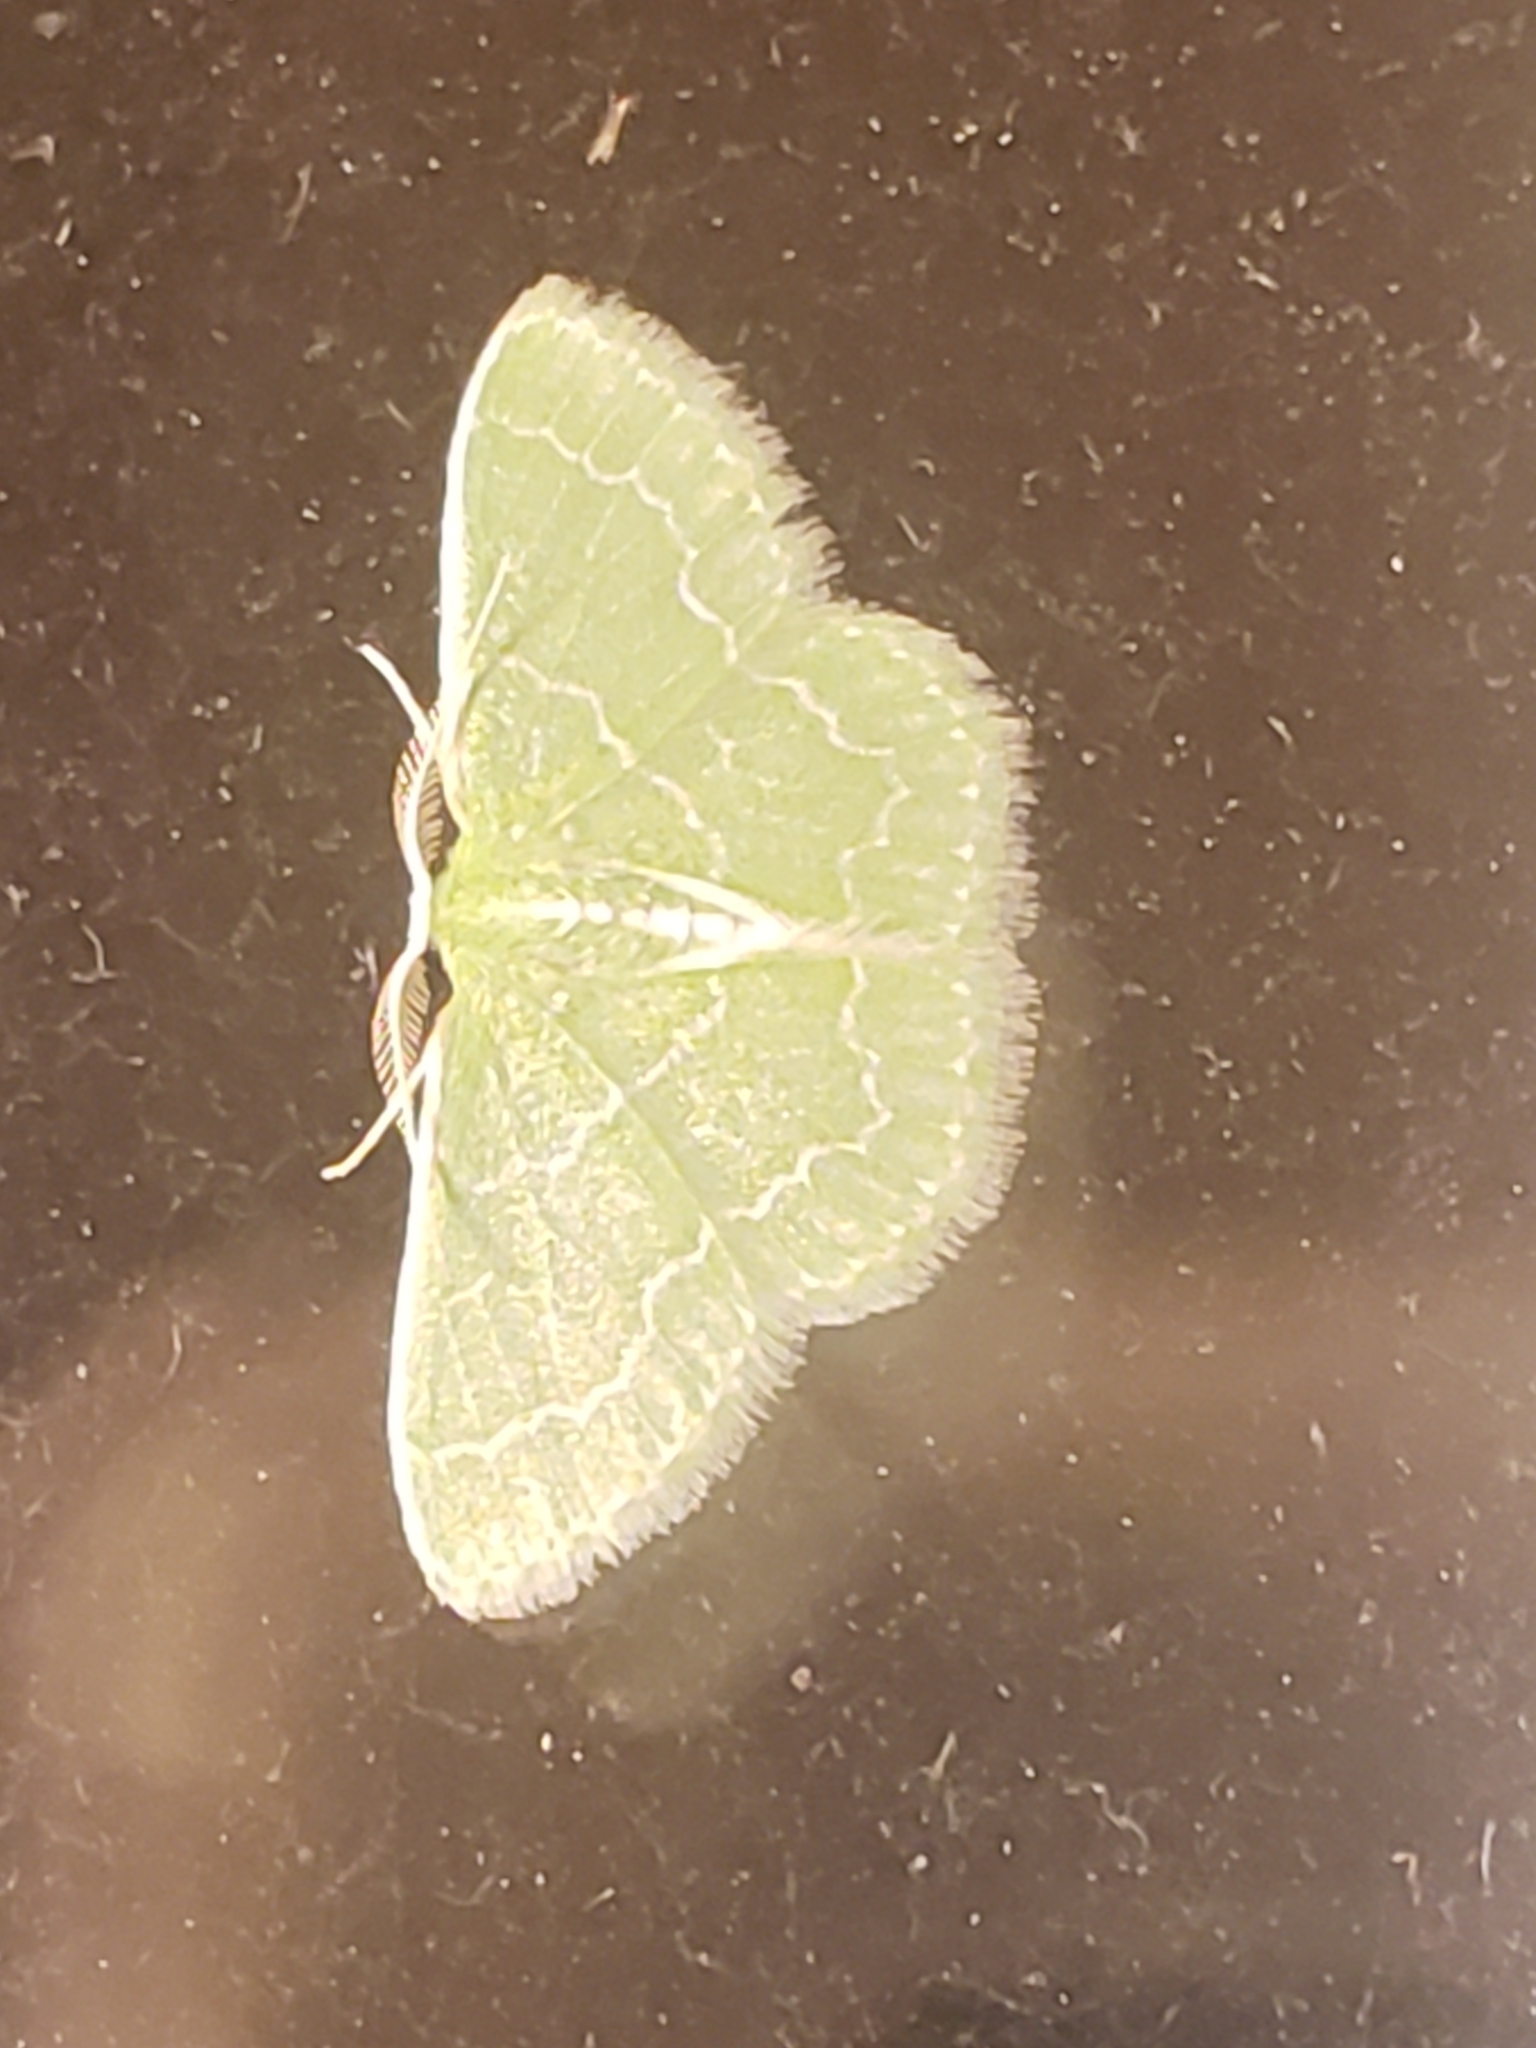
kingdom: Animalia
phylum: Arthropoda
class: Insecta
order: Lepidoptera
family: Geometridae
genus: Synchlora
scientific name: Synchlora aerata
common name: Wavy-lined emerald
